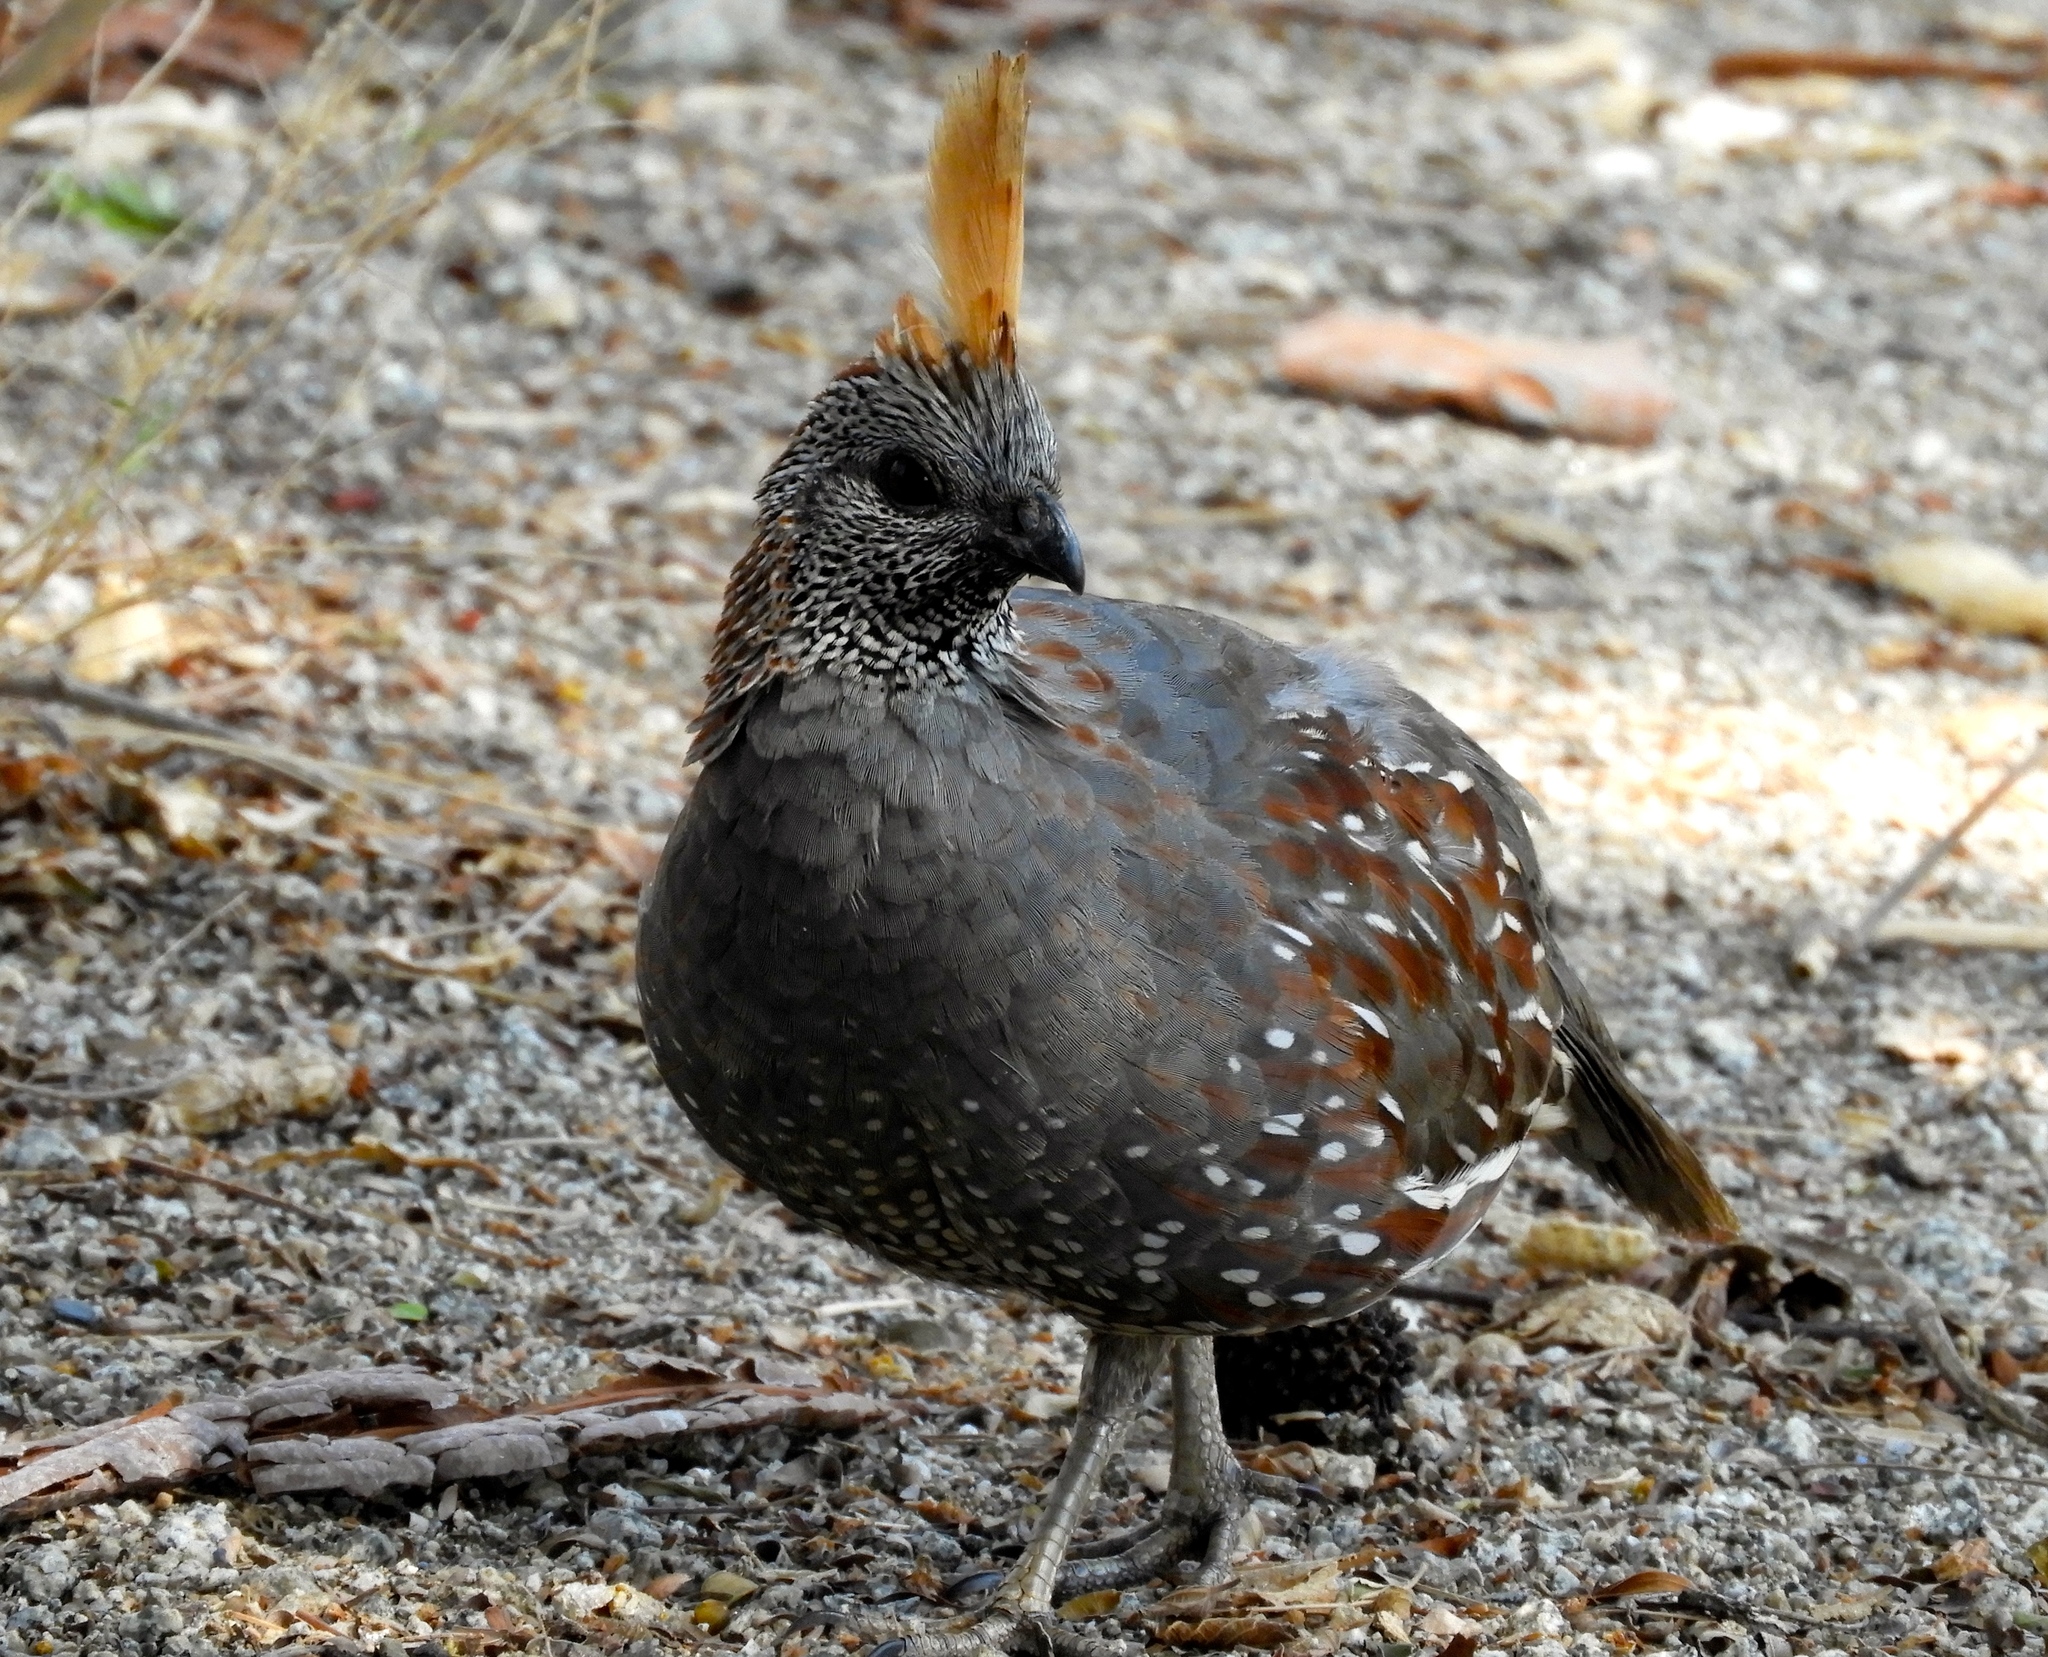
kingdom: Animalia
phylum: Chordata
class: Aves
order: Galliformes
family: Odontophoridae
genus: Callipepla
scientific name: Callipepla douglasii
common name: Elegant quail
